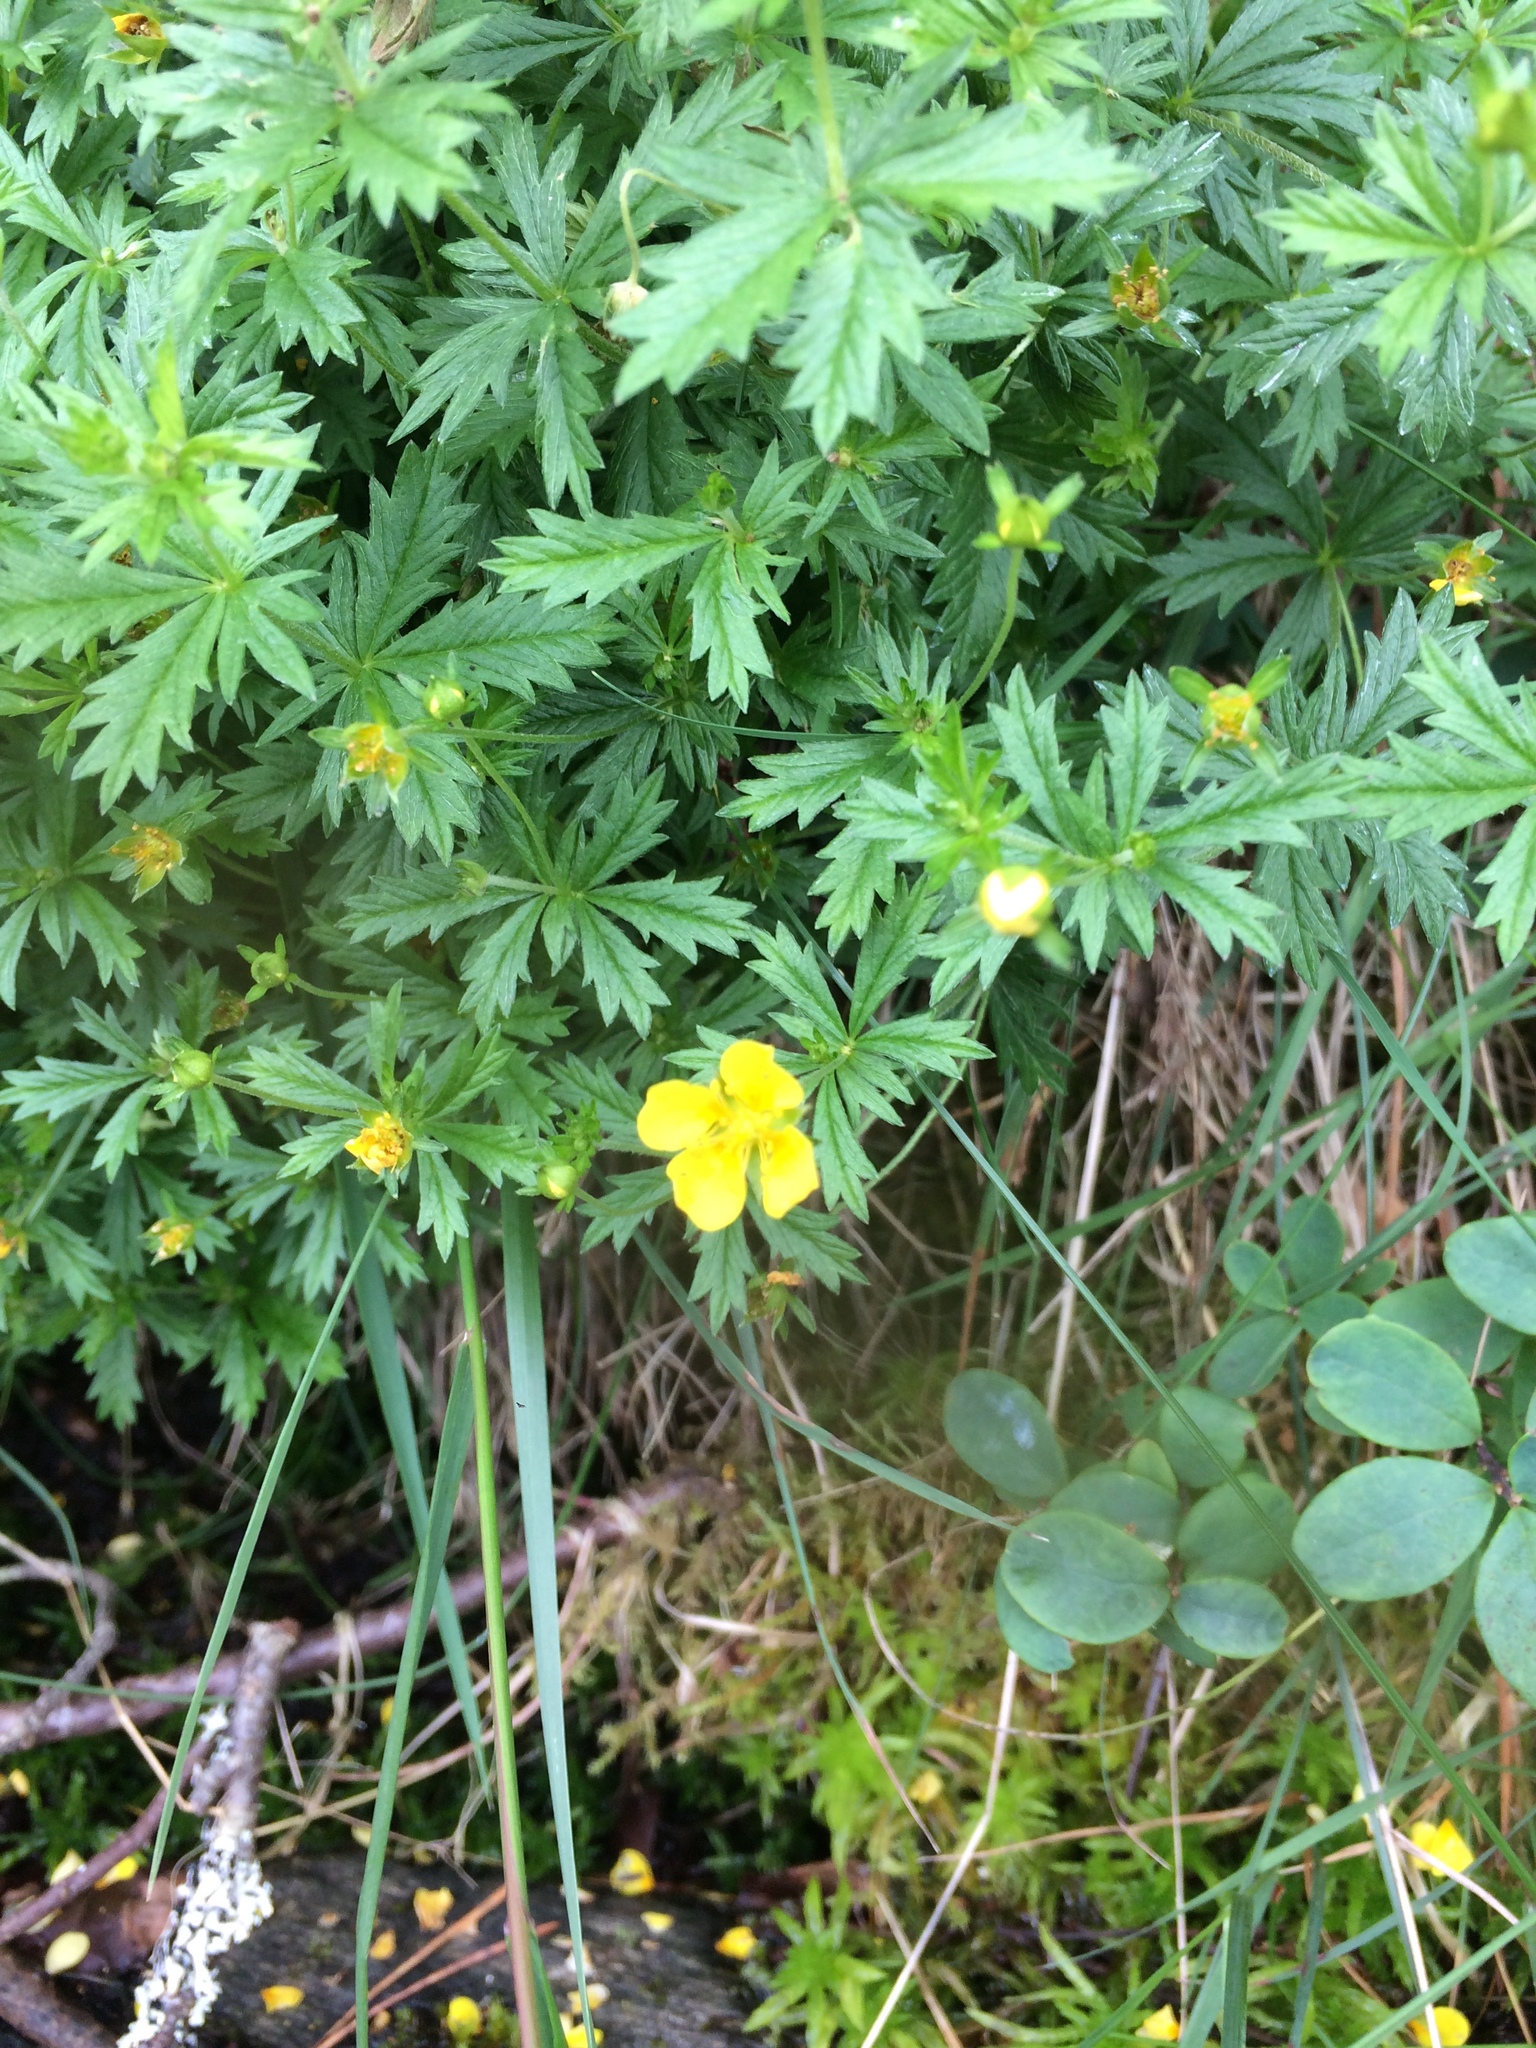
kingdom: Plantae
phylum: Tracheophyta
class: Magnoliopsida
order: Rosales
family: Rosaceae
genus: Potentilla
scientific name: Potentilla erecta
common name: Tormentil
